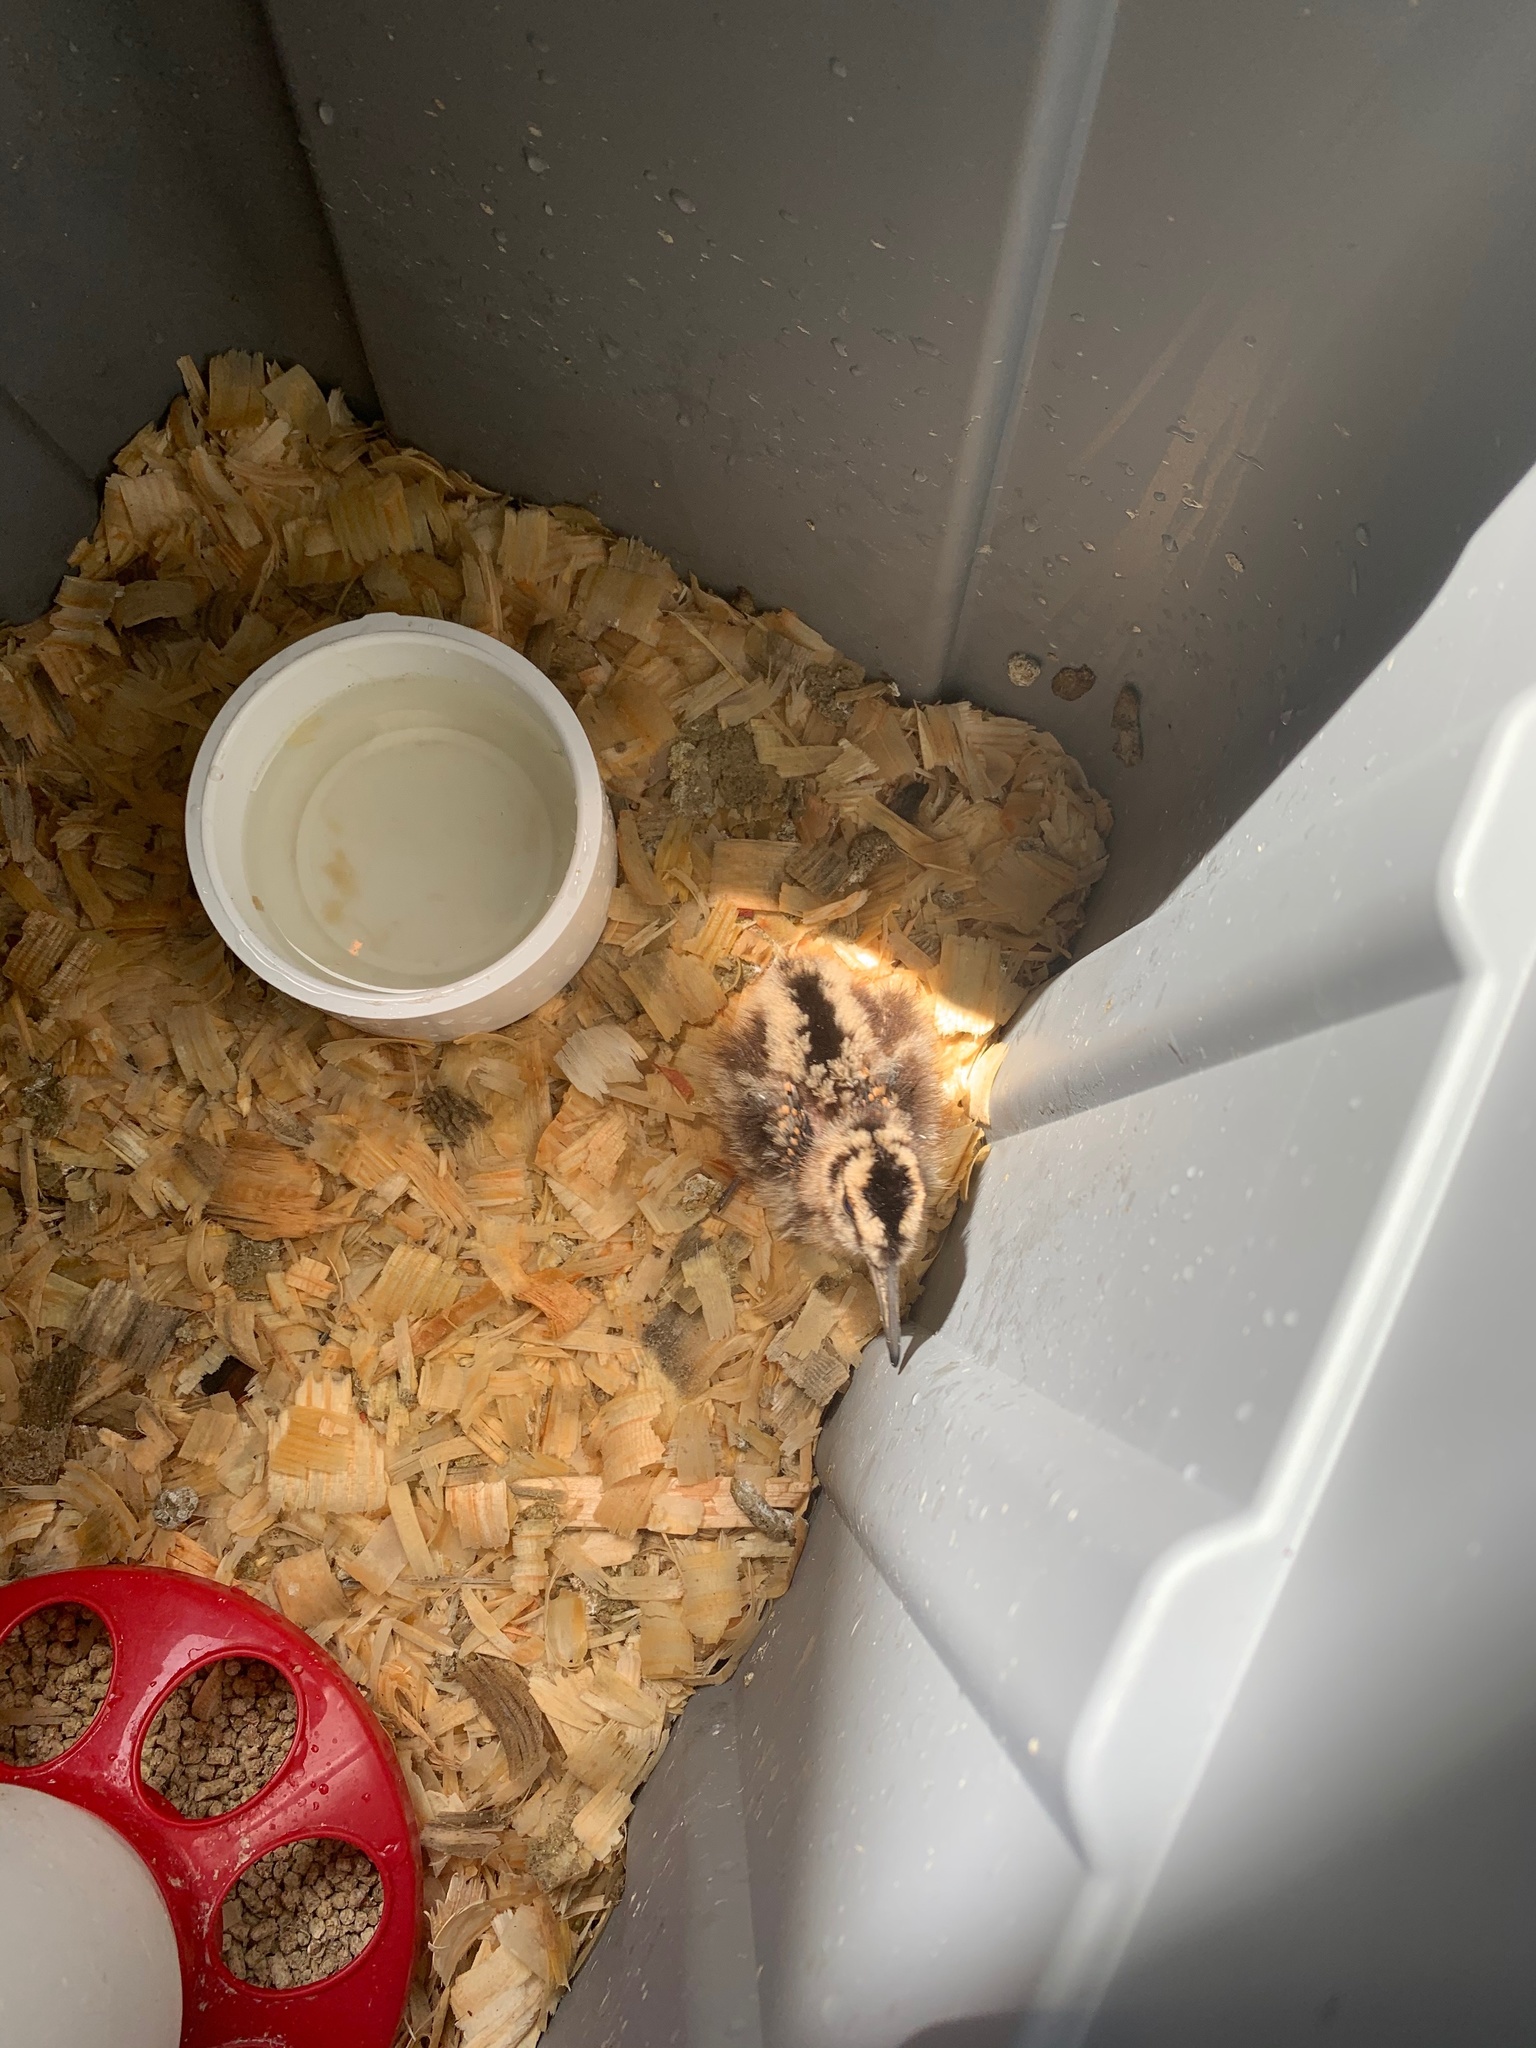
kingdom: Animalia
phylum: Chordata
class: Aves
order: Charadriiformes
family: Scolopacidae
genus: Scolopax
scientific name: Scolopax minor
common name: American woodcock
